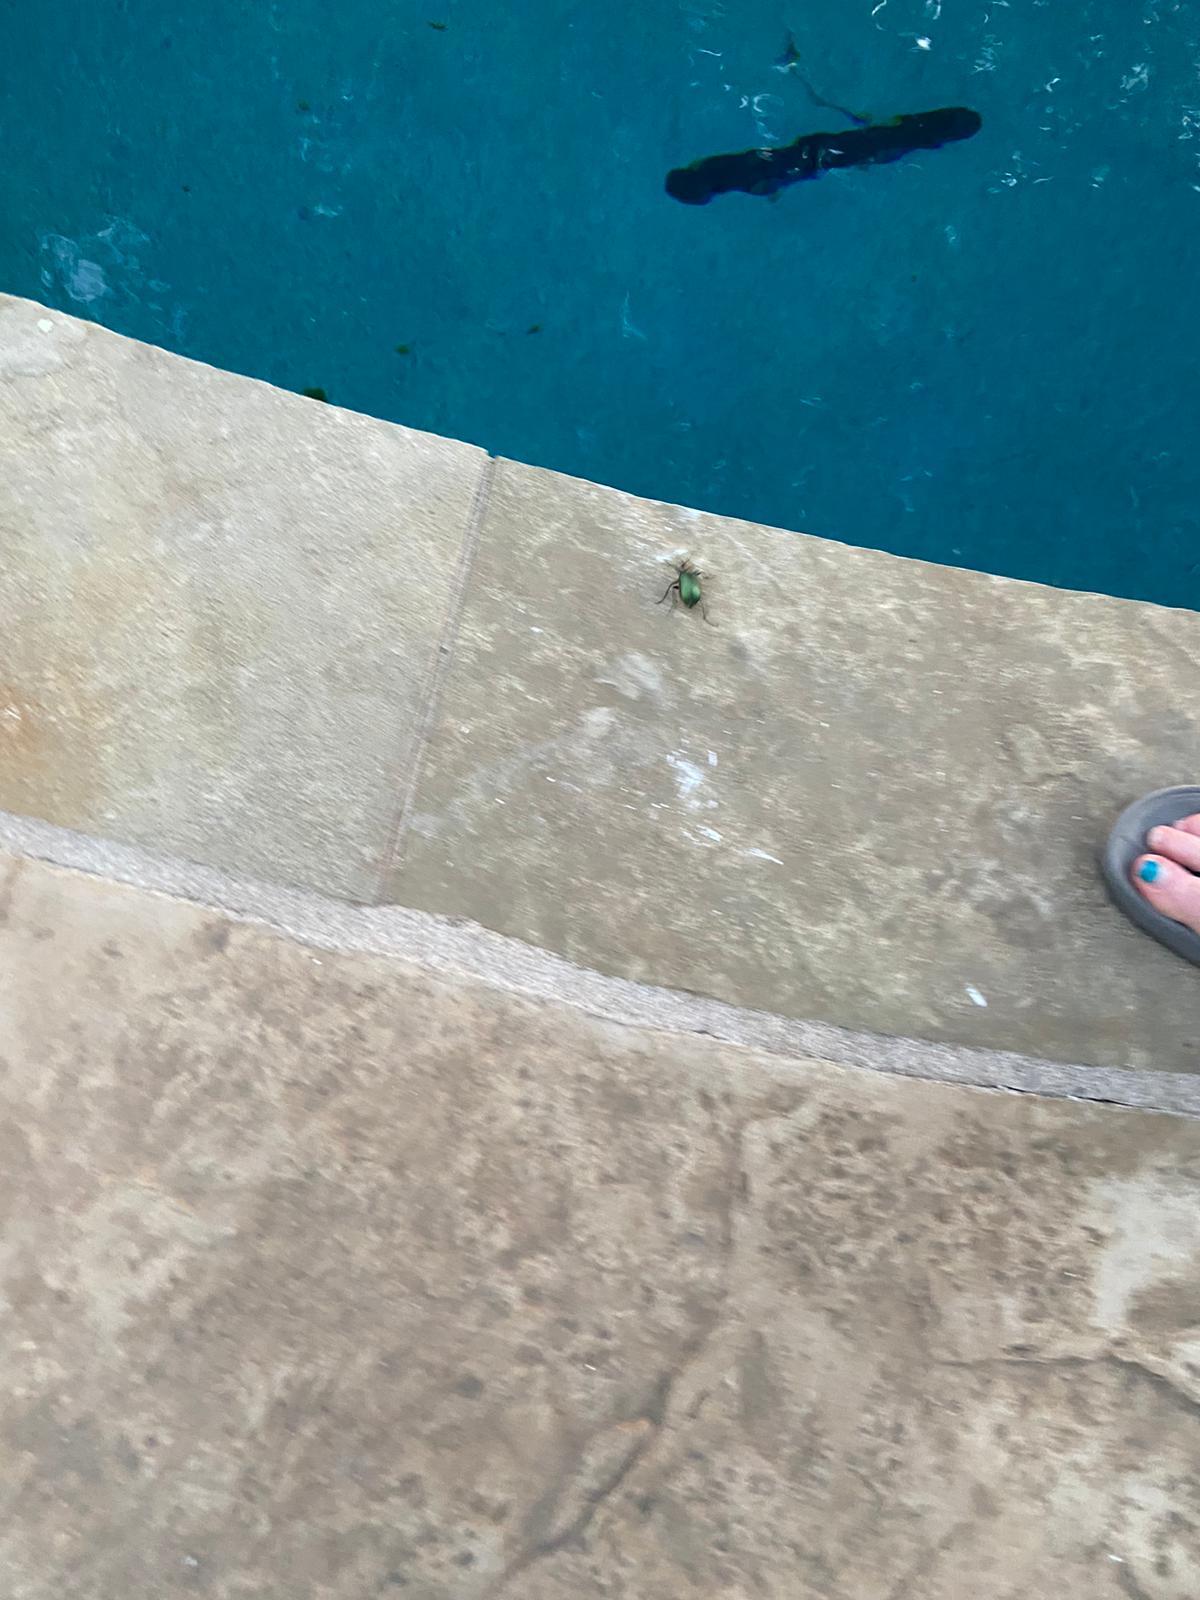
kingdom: Animalia
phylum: Arthropoda
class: Insecta
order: Coleoptera
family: Carabidae
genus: Calosoma
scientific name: Calosoma scrutator
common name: Fiery searcher beetle
